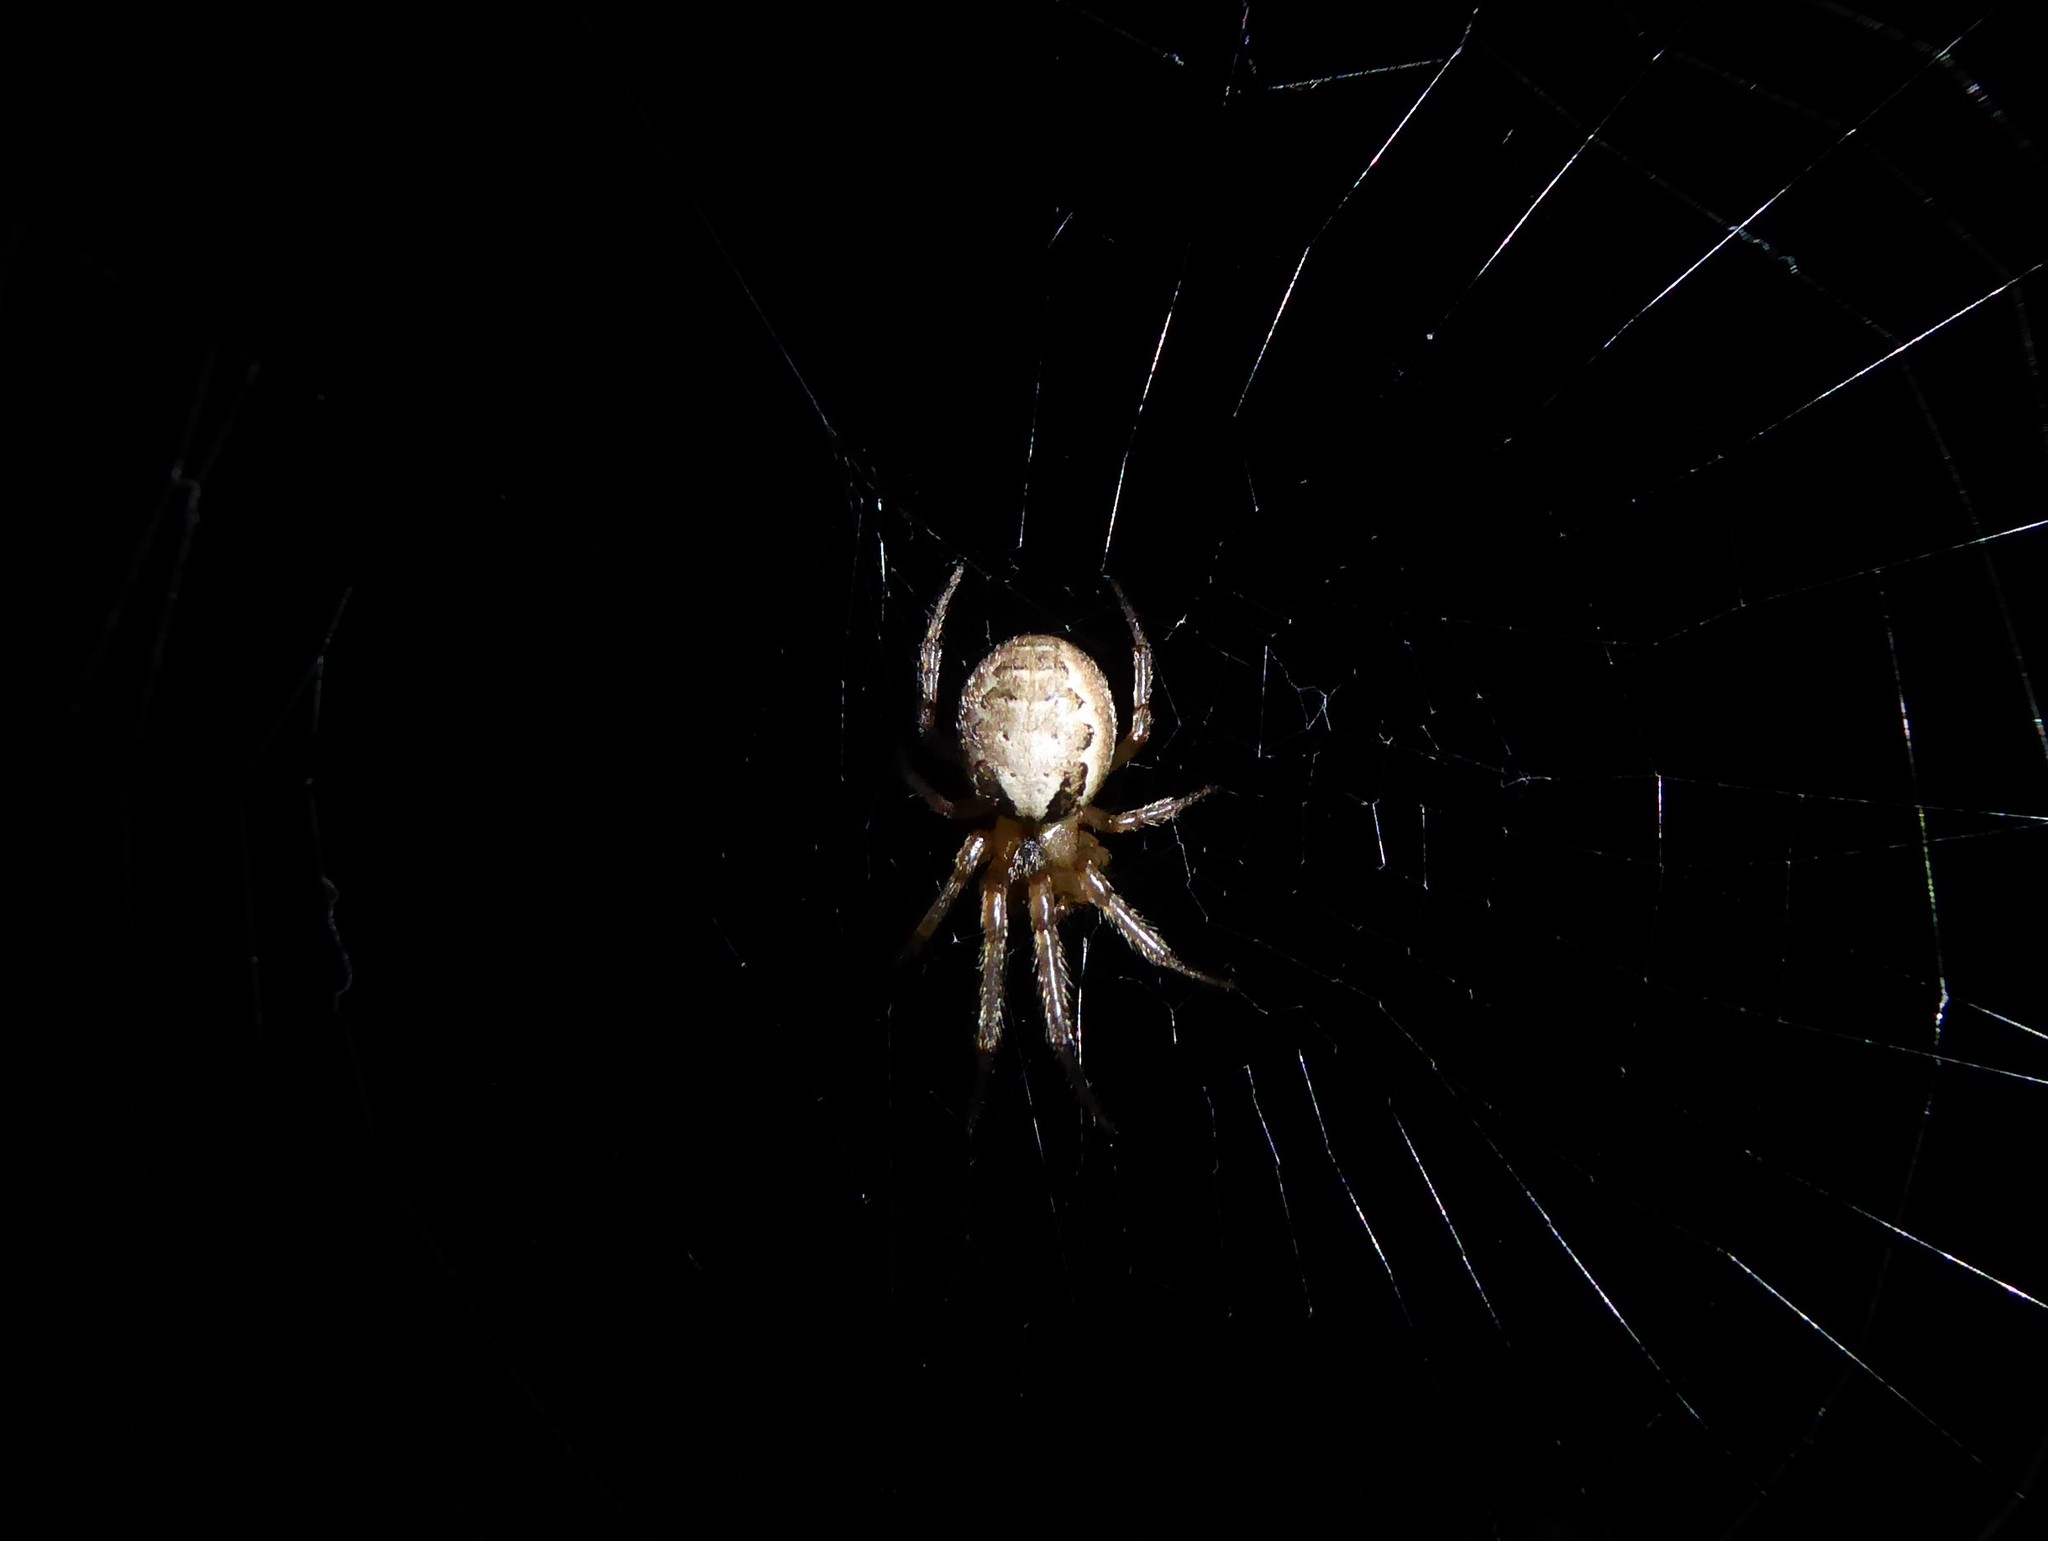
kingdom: Animalia
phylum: Arthropoda
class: Arachnida
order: Araneae
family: Araneidae
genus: Zygiella
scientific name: Zygiella x-notata
